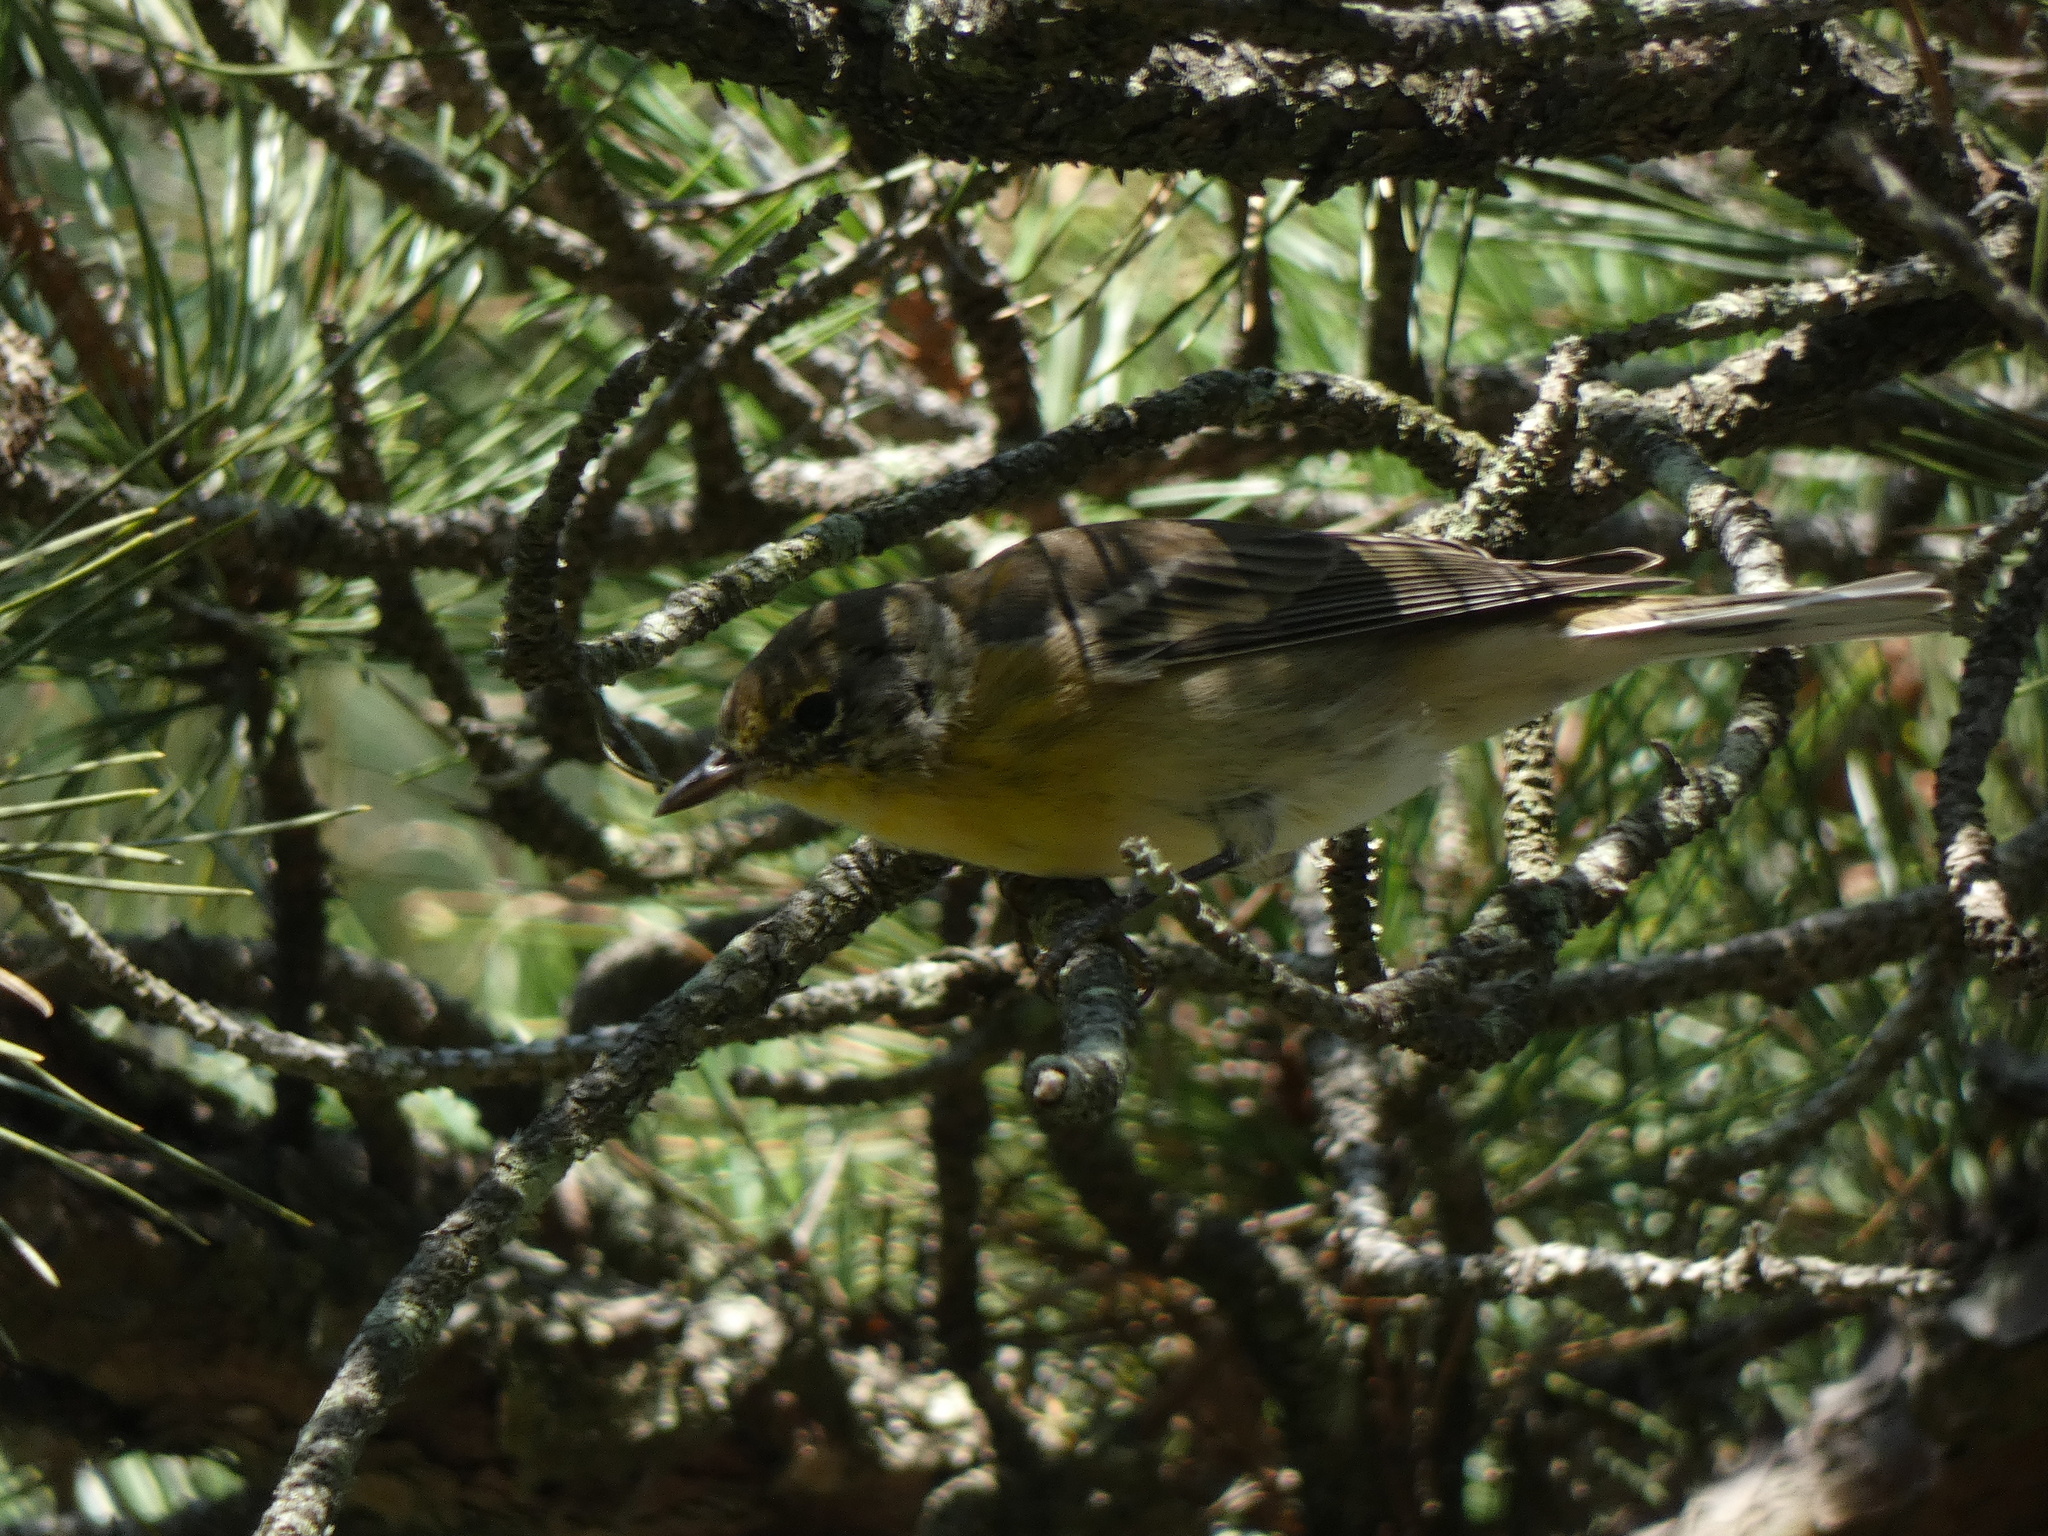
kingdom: Animalia
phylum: Chordata
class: Aves
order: Passeriformes
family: Parulidae
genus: Setophaga
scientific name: Setophaga pinus
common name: Pine warbler
